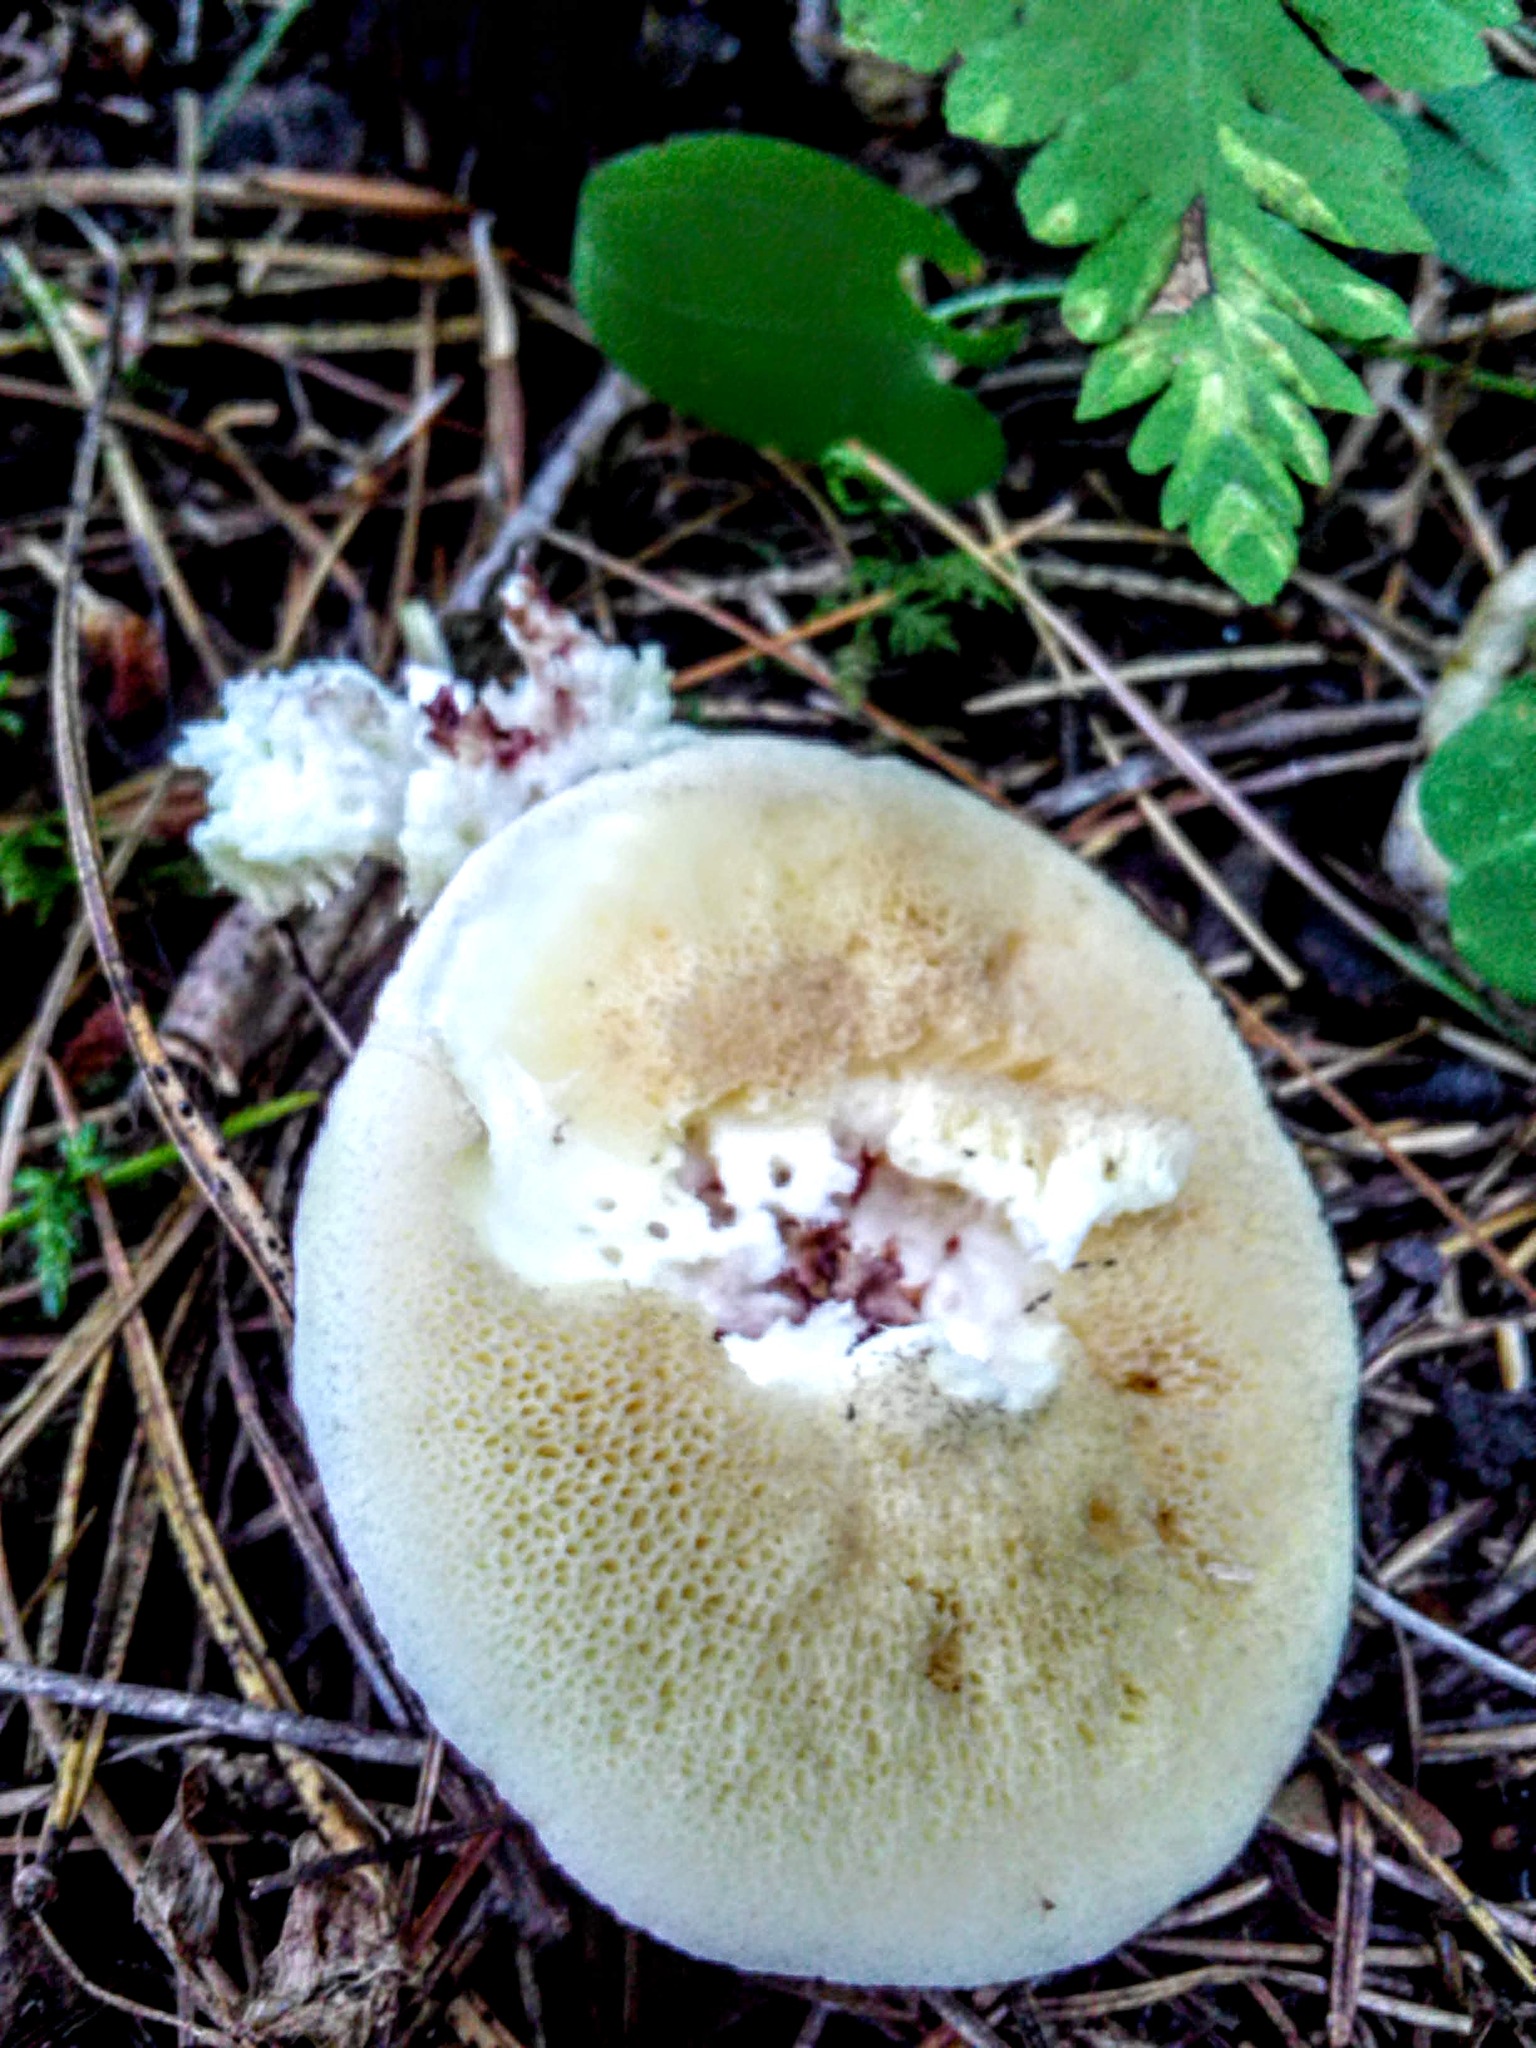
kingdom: Fungi
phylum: Basidiomycota
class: Agaricomycetes
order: Boletales
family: Suillaceae
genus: Suillus
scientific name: Suillus placidus
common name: Slippery white bolete
